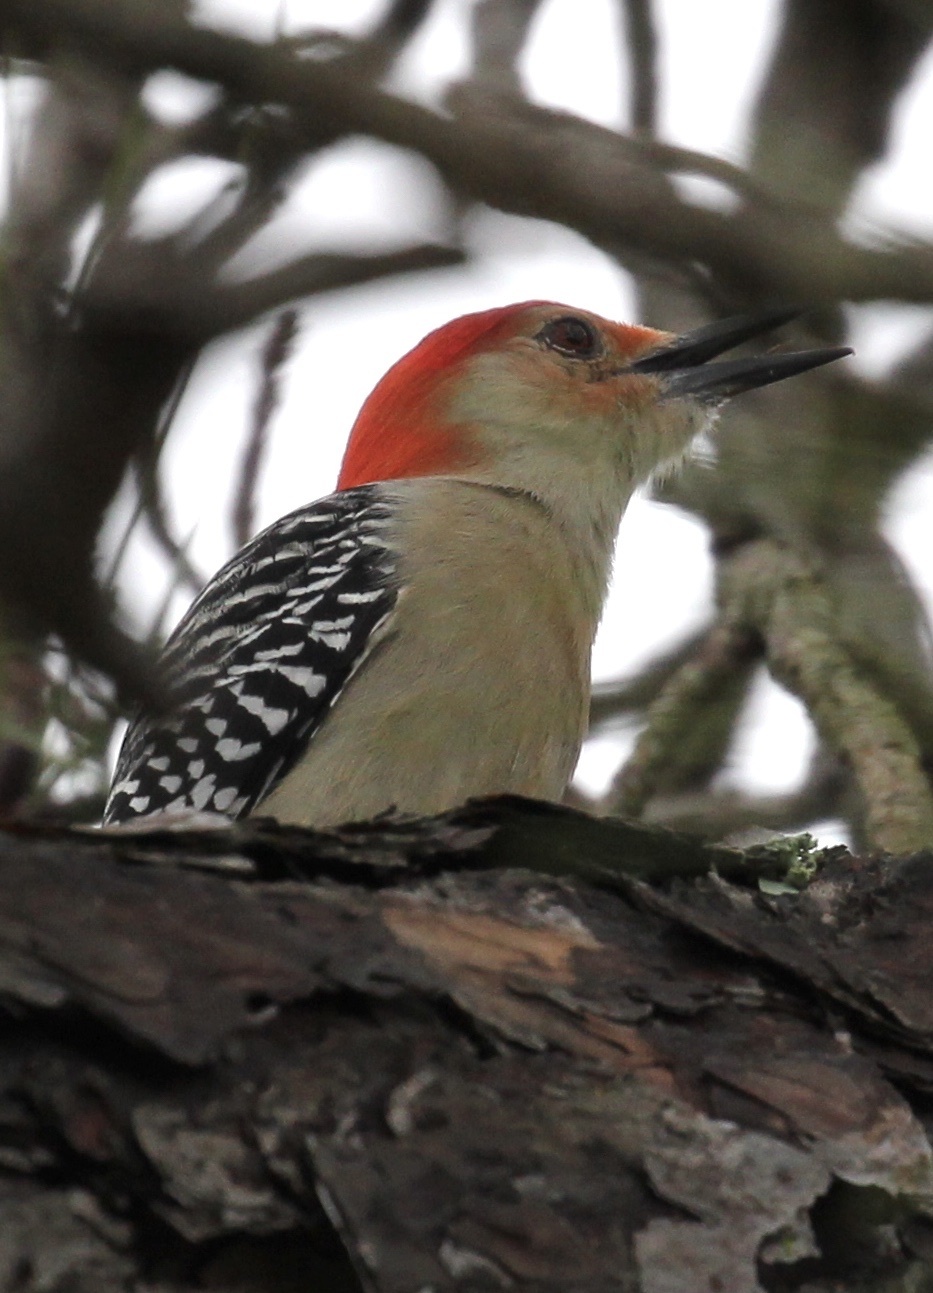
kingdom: Animalia
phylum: Chordata
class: Aves
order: Piciformes
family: Picidae
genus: Melanerpes
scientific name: Melanerpes carolinus
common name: Red-bellied woodpecker
